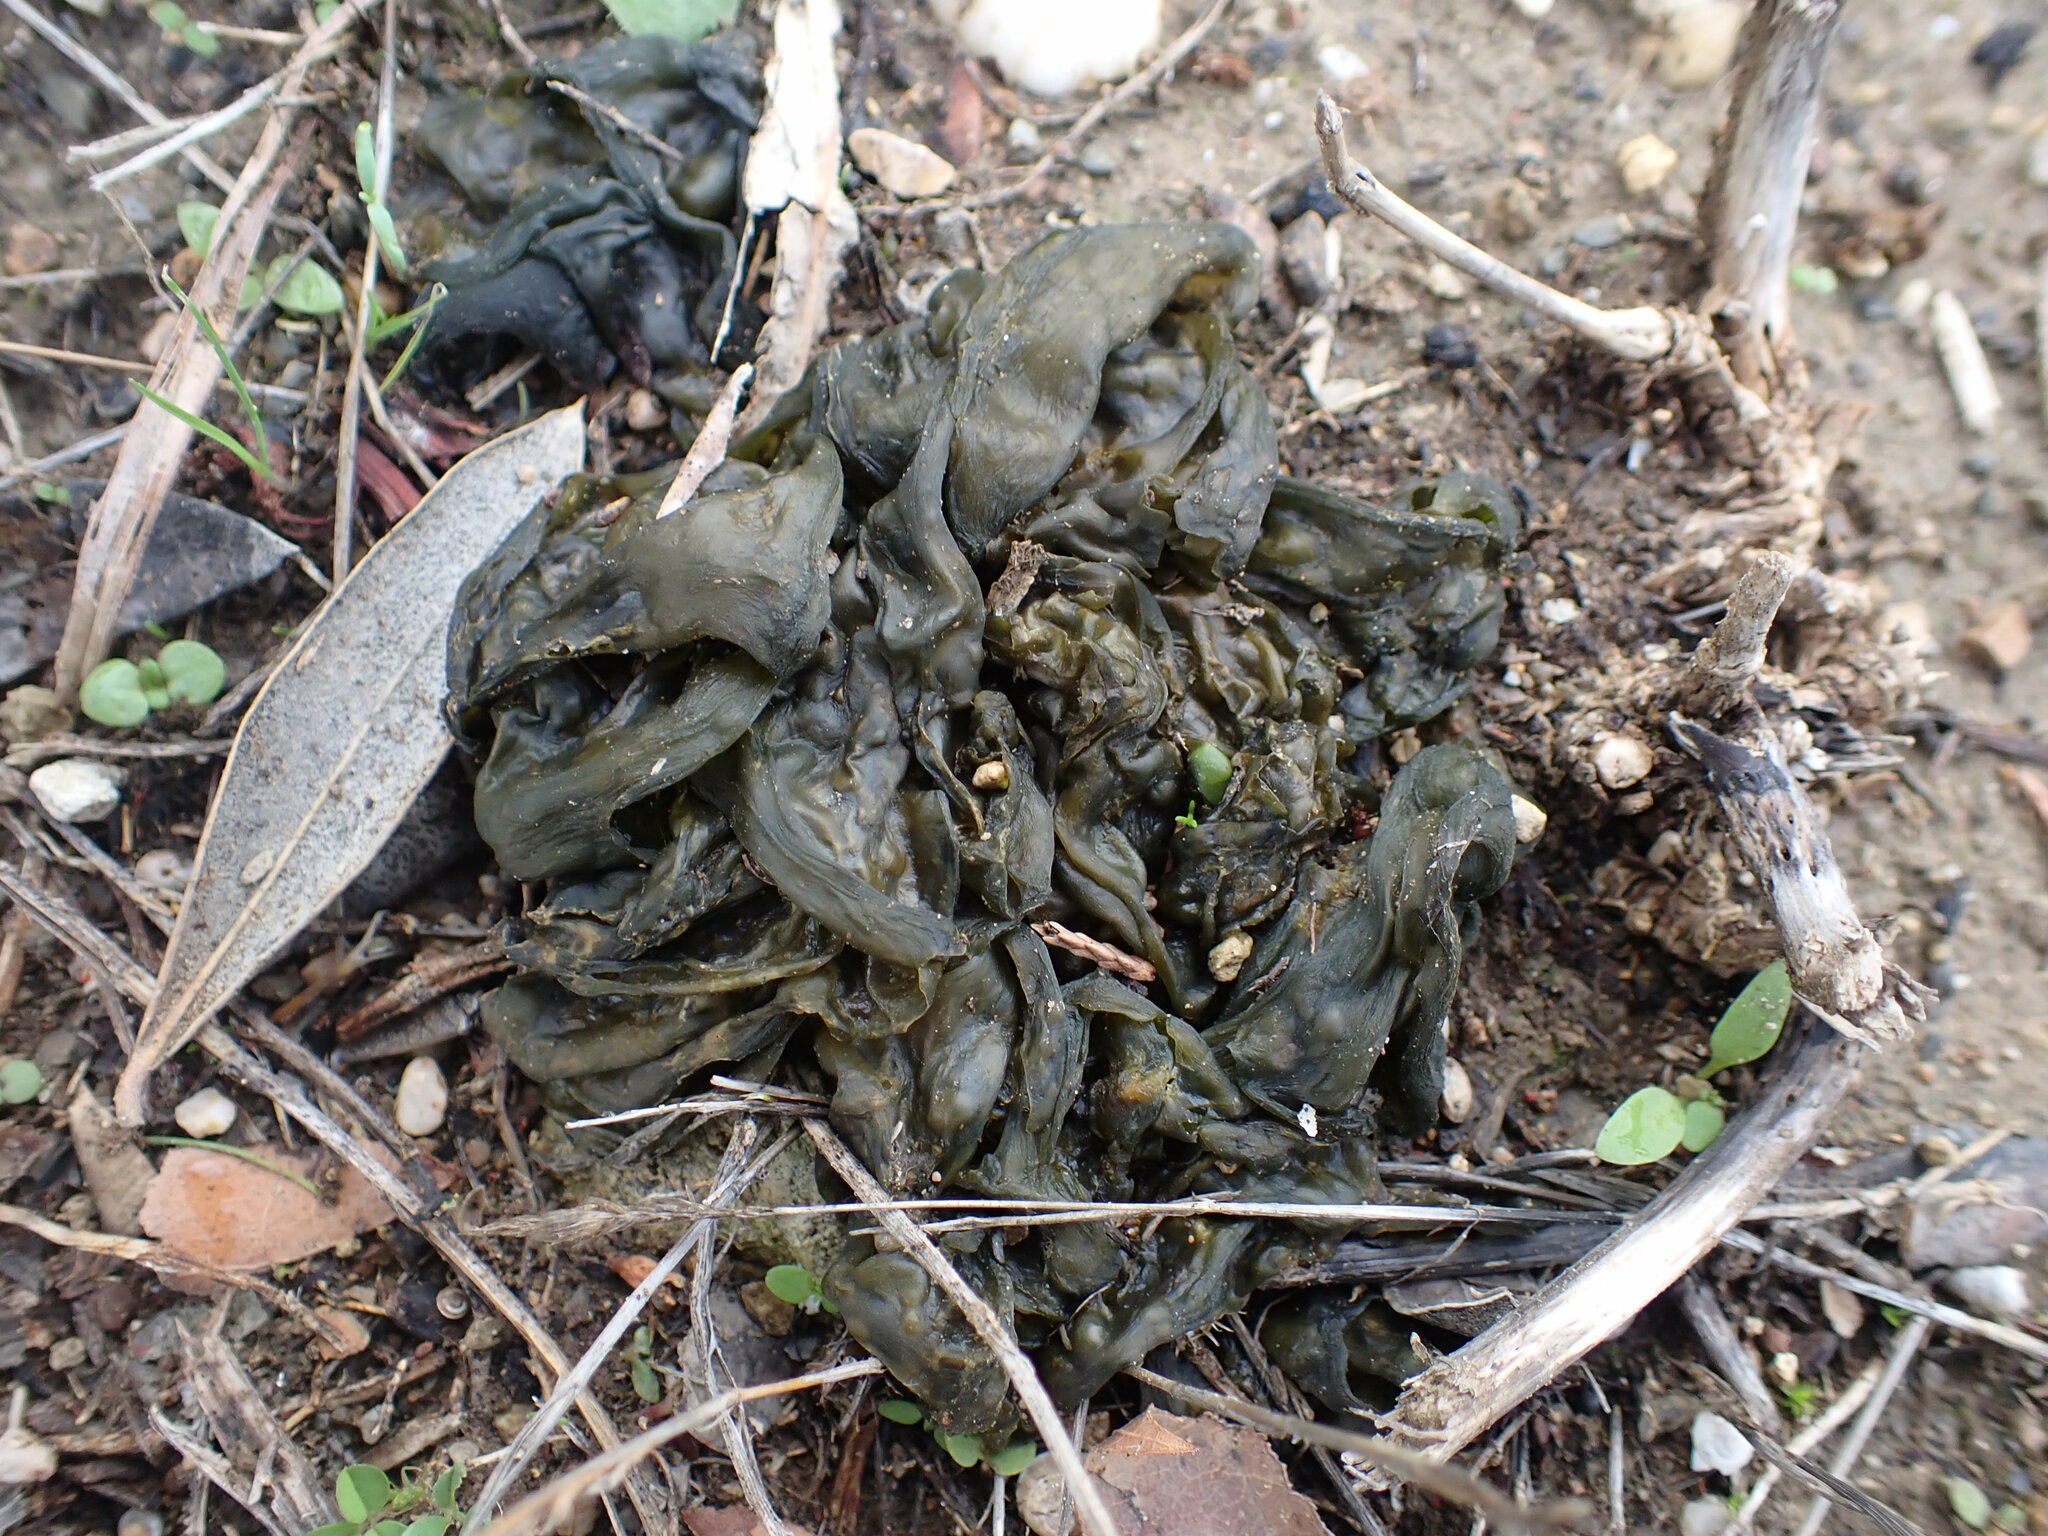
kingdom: Bacteria
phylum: Cyanobacteria
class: Cyanobacteriia
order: Cyanobacteriales
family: Nostocaceae
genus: Nostoc
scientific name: Nostoc commune
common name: Star jelly
